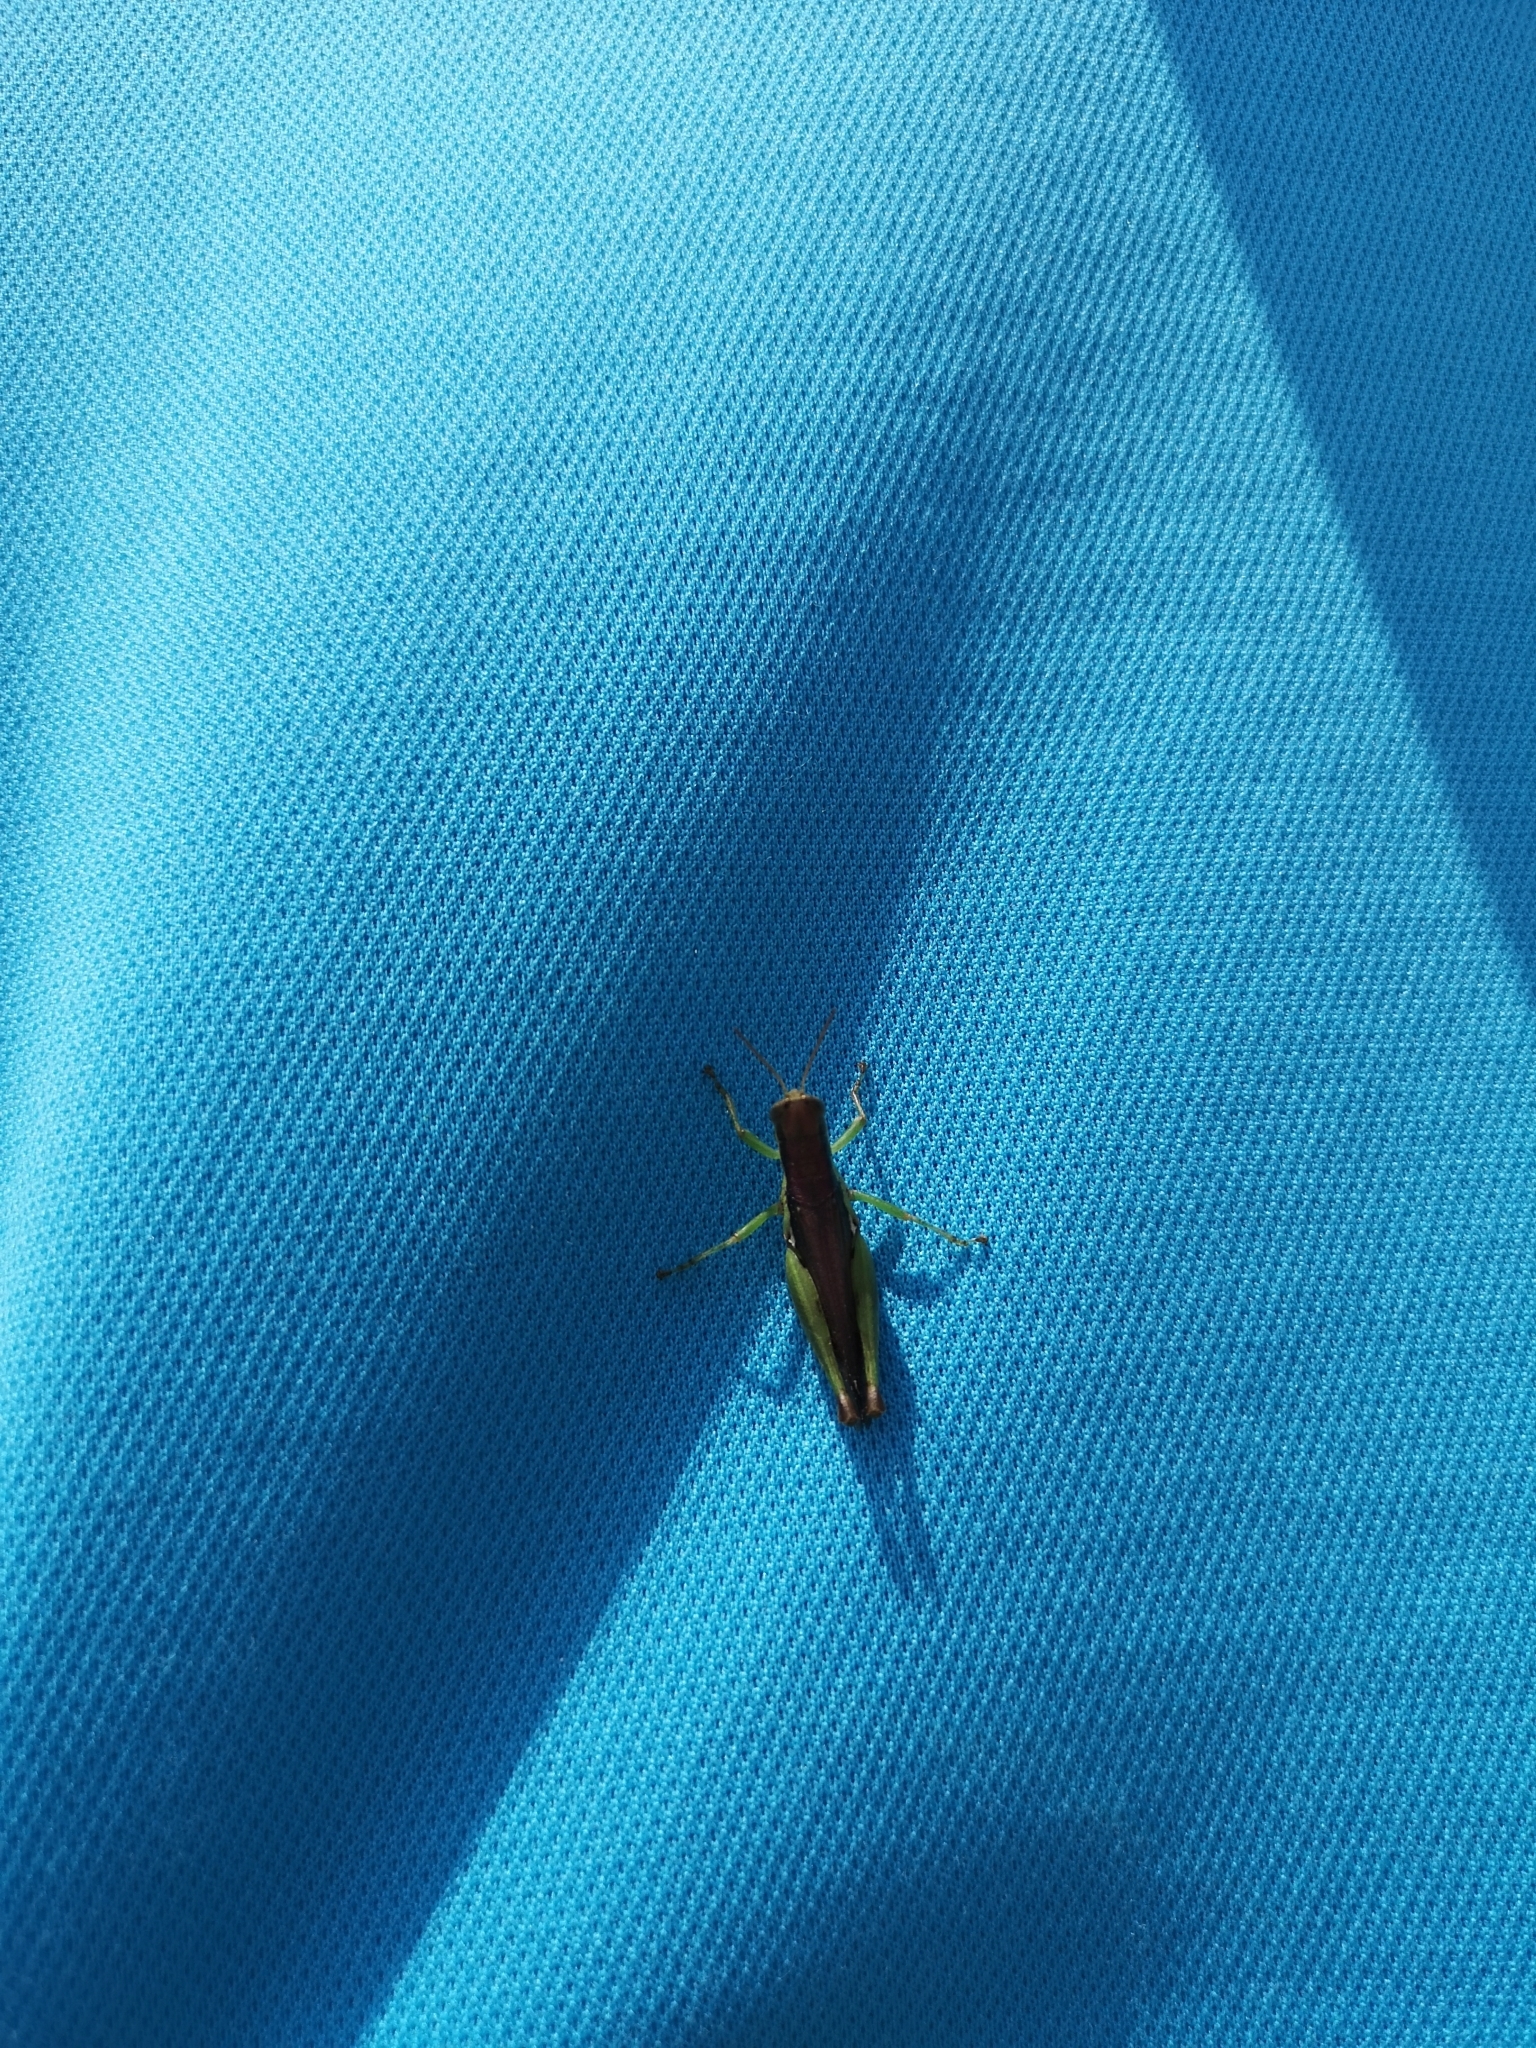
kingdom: Animalia
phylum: Arthropoda
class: Insecta
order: Orthoptera
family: Acrididae
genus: Pseudoxya
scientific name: Pseudoxya diminuta
